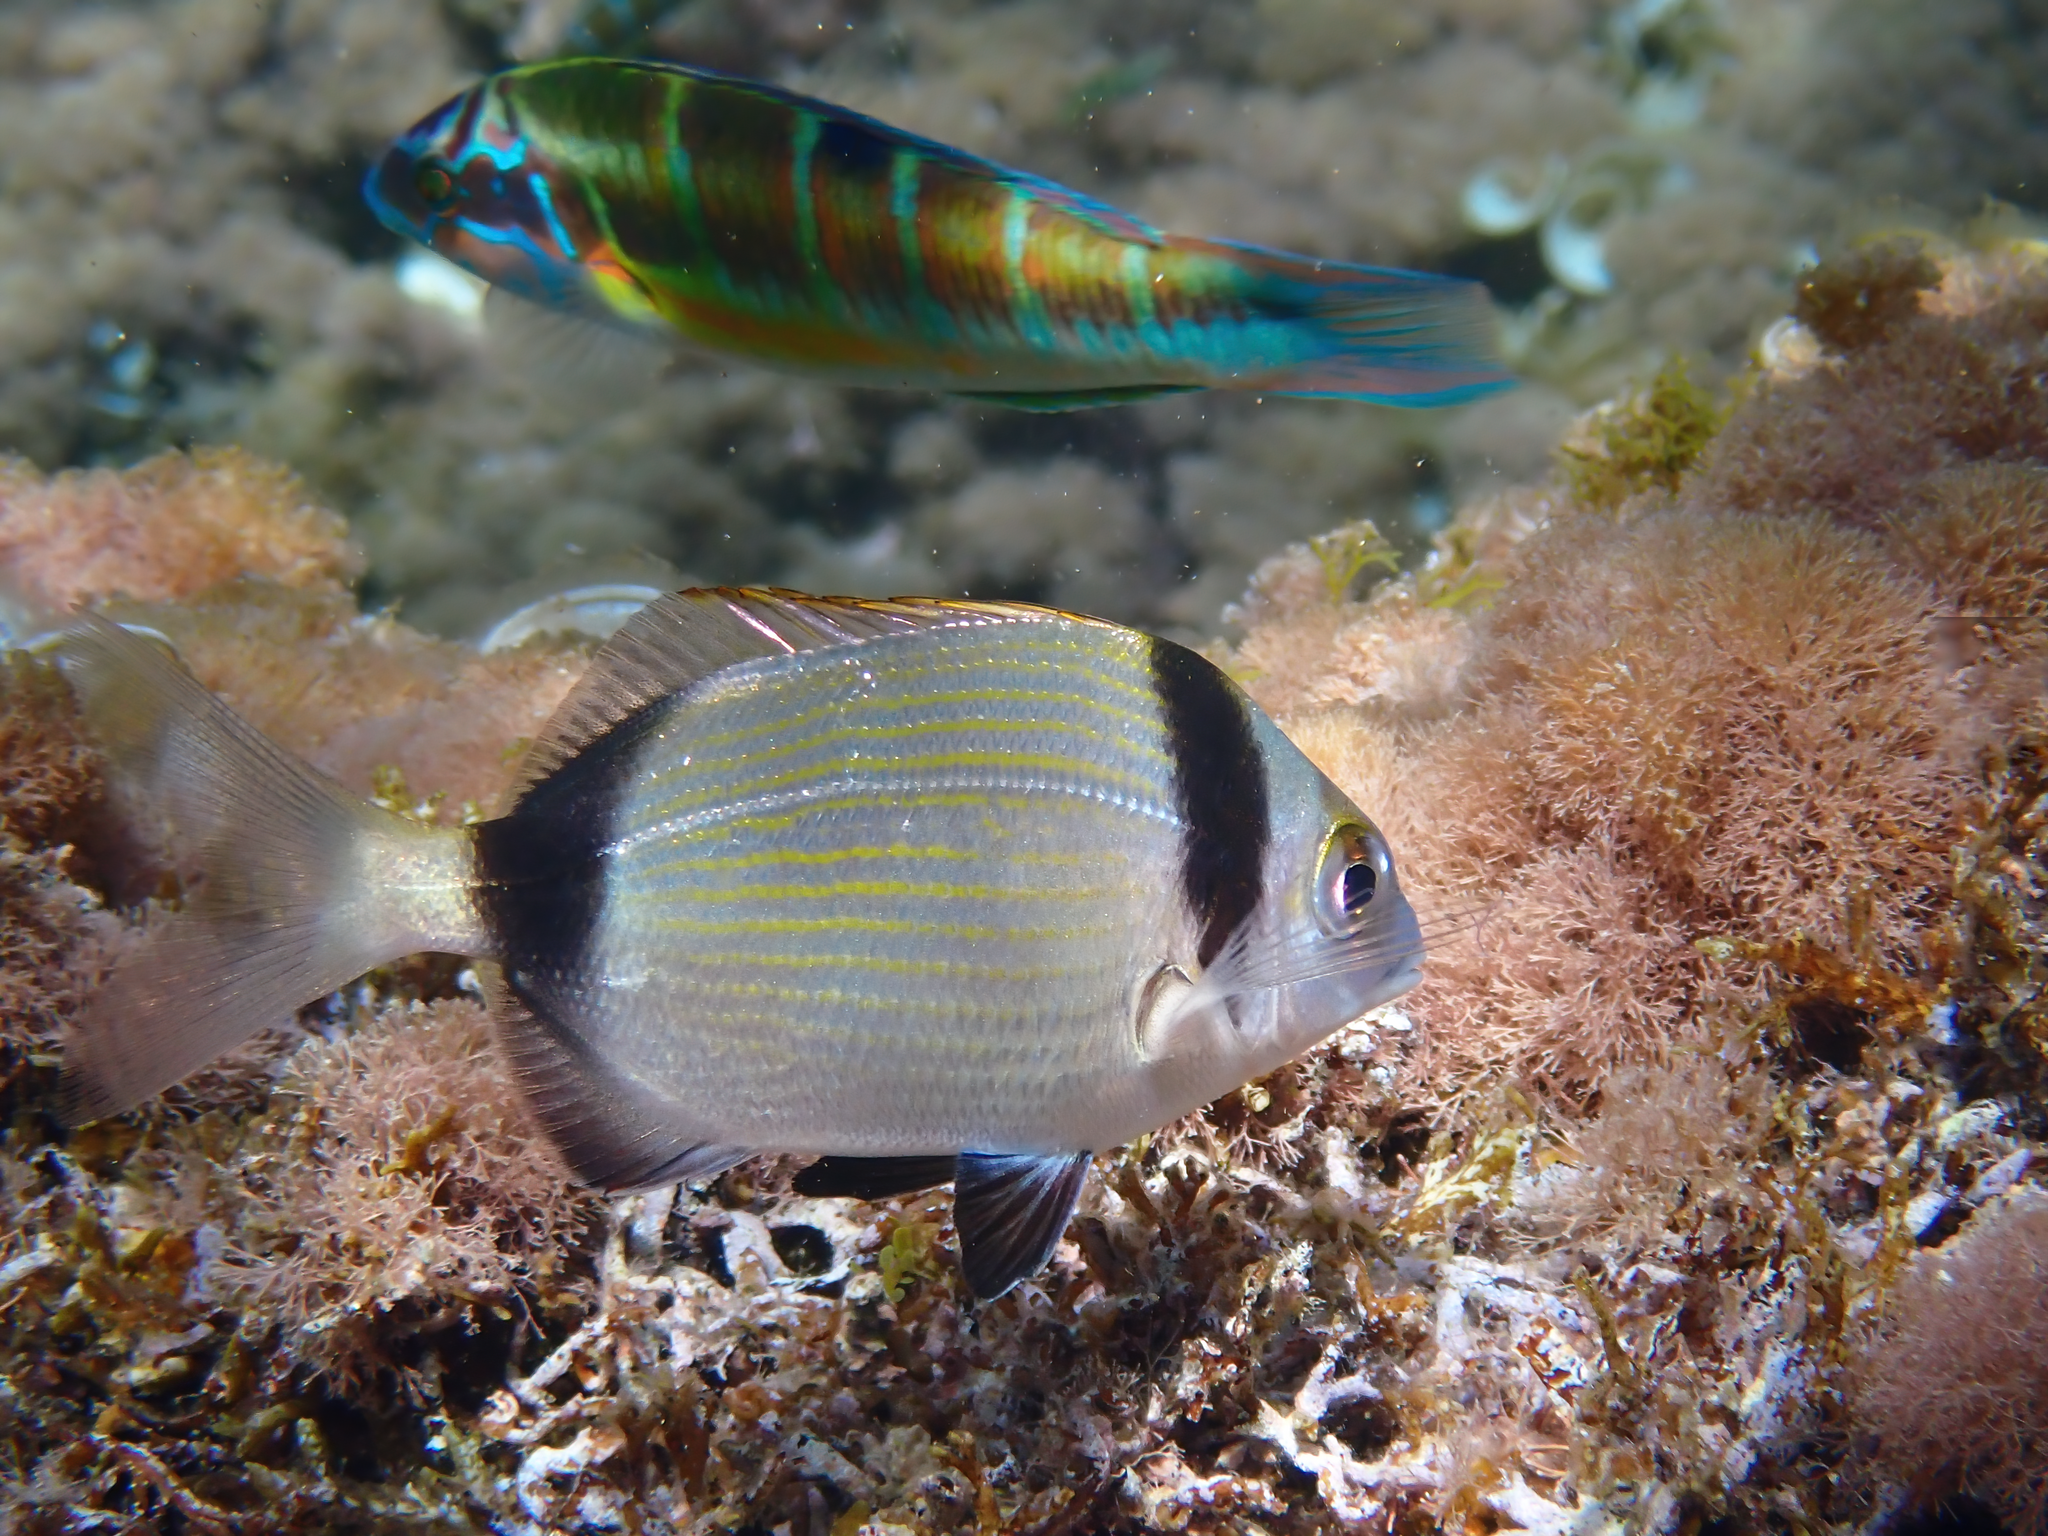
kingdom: Animalia
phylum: Chordata
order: Perciformes
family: Sparidae
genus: Diplodus
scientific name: Diplodus vulgaris
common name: Common two-banded seabream
